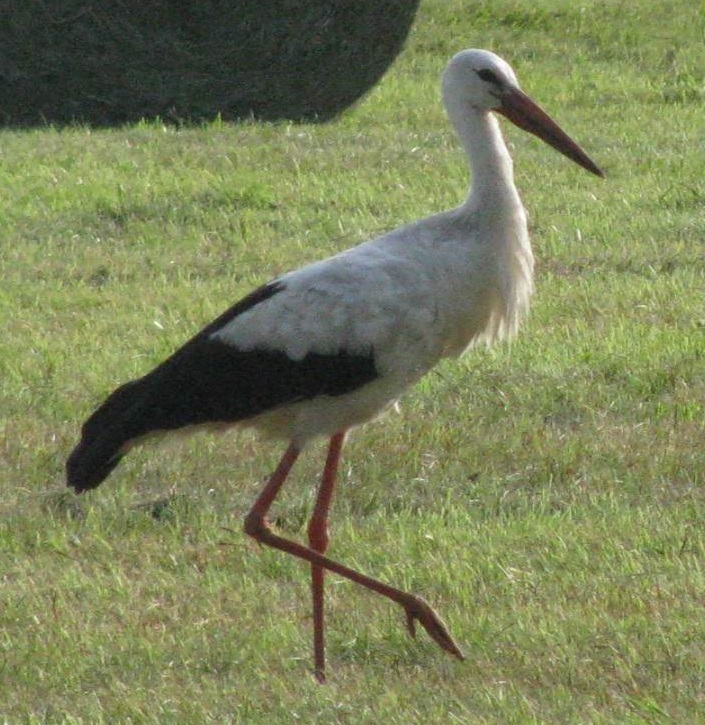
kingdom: Animalia
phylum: Chordata
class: Aves
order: Ciconiiformes
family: Ciconiidae
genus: Ciconia
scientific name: Ciconia ciconia
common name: White stork
